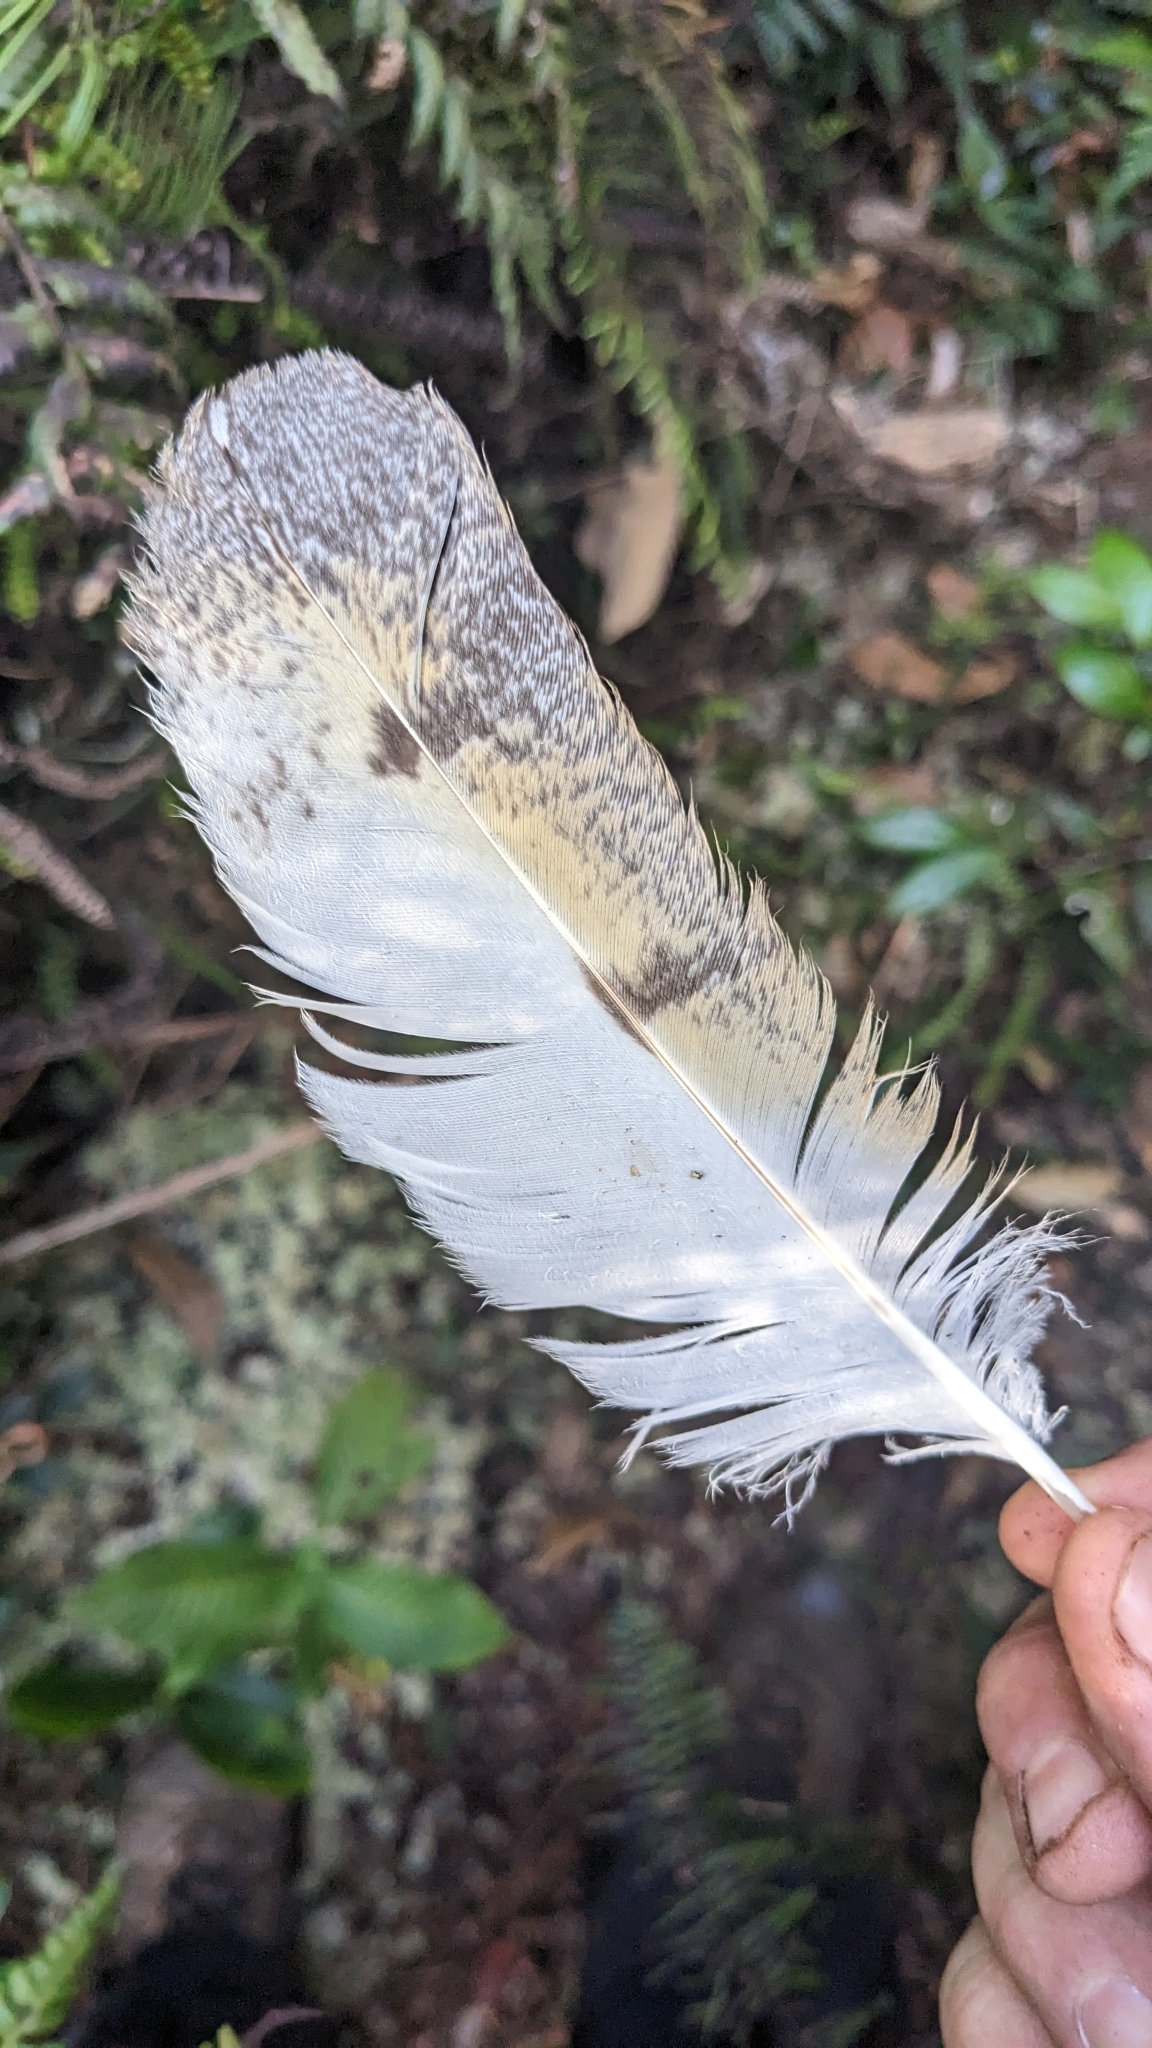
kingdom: Animalia
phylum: Chordata
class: Aves
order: Strigiformes
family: Tytonidae
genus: Tyto
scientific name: Tyto alba
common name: Barn owl
